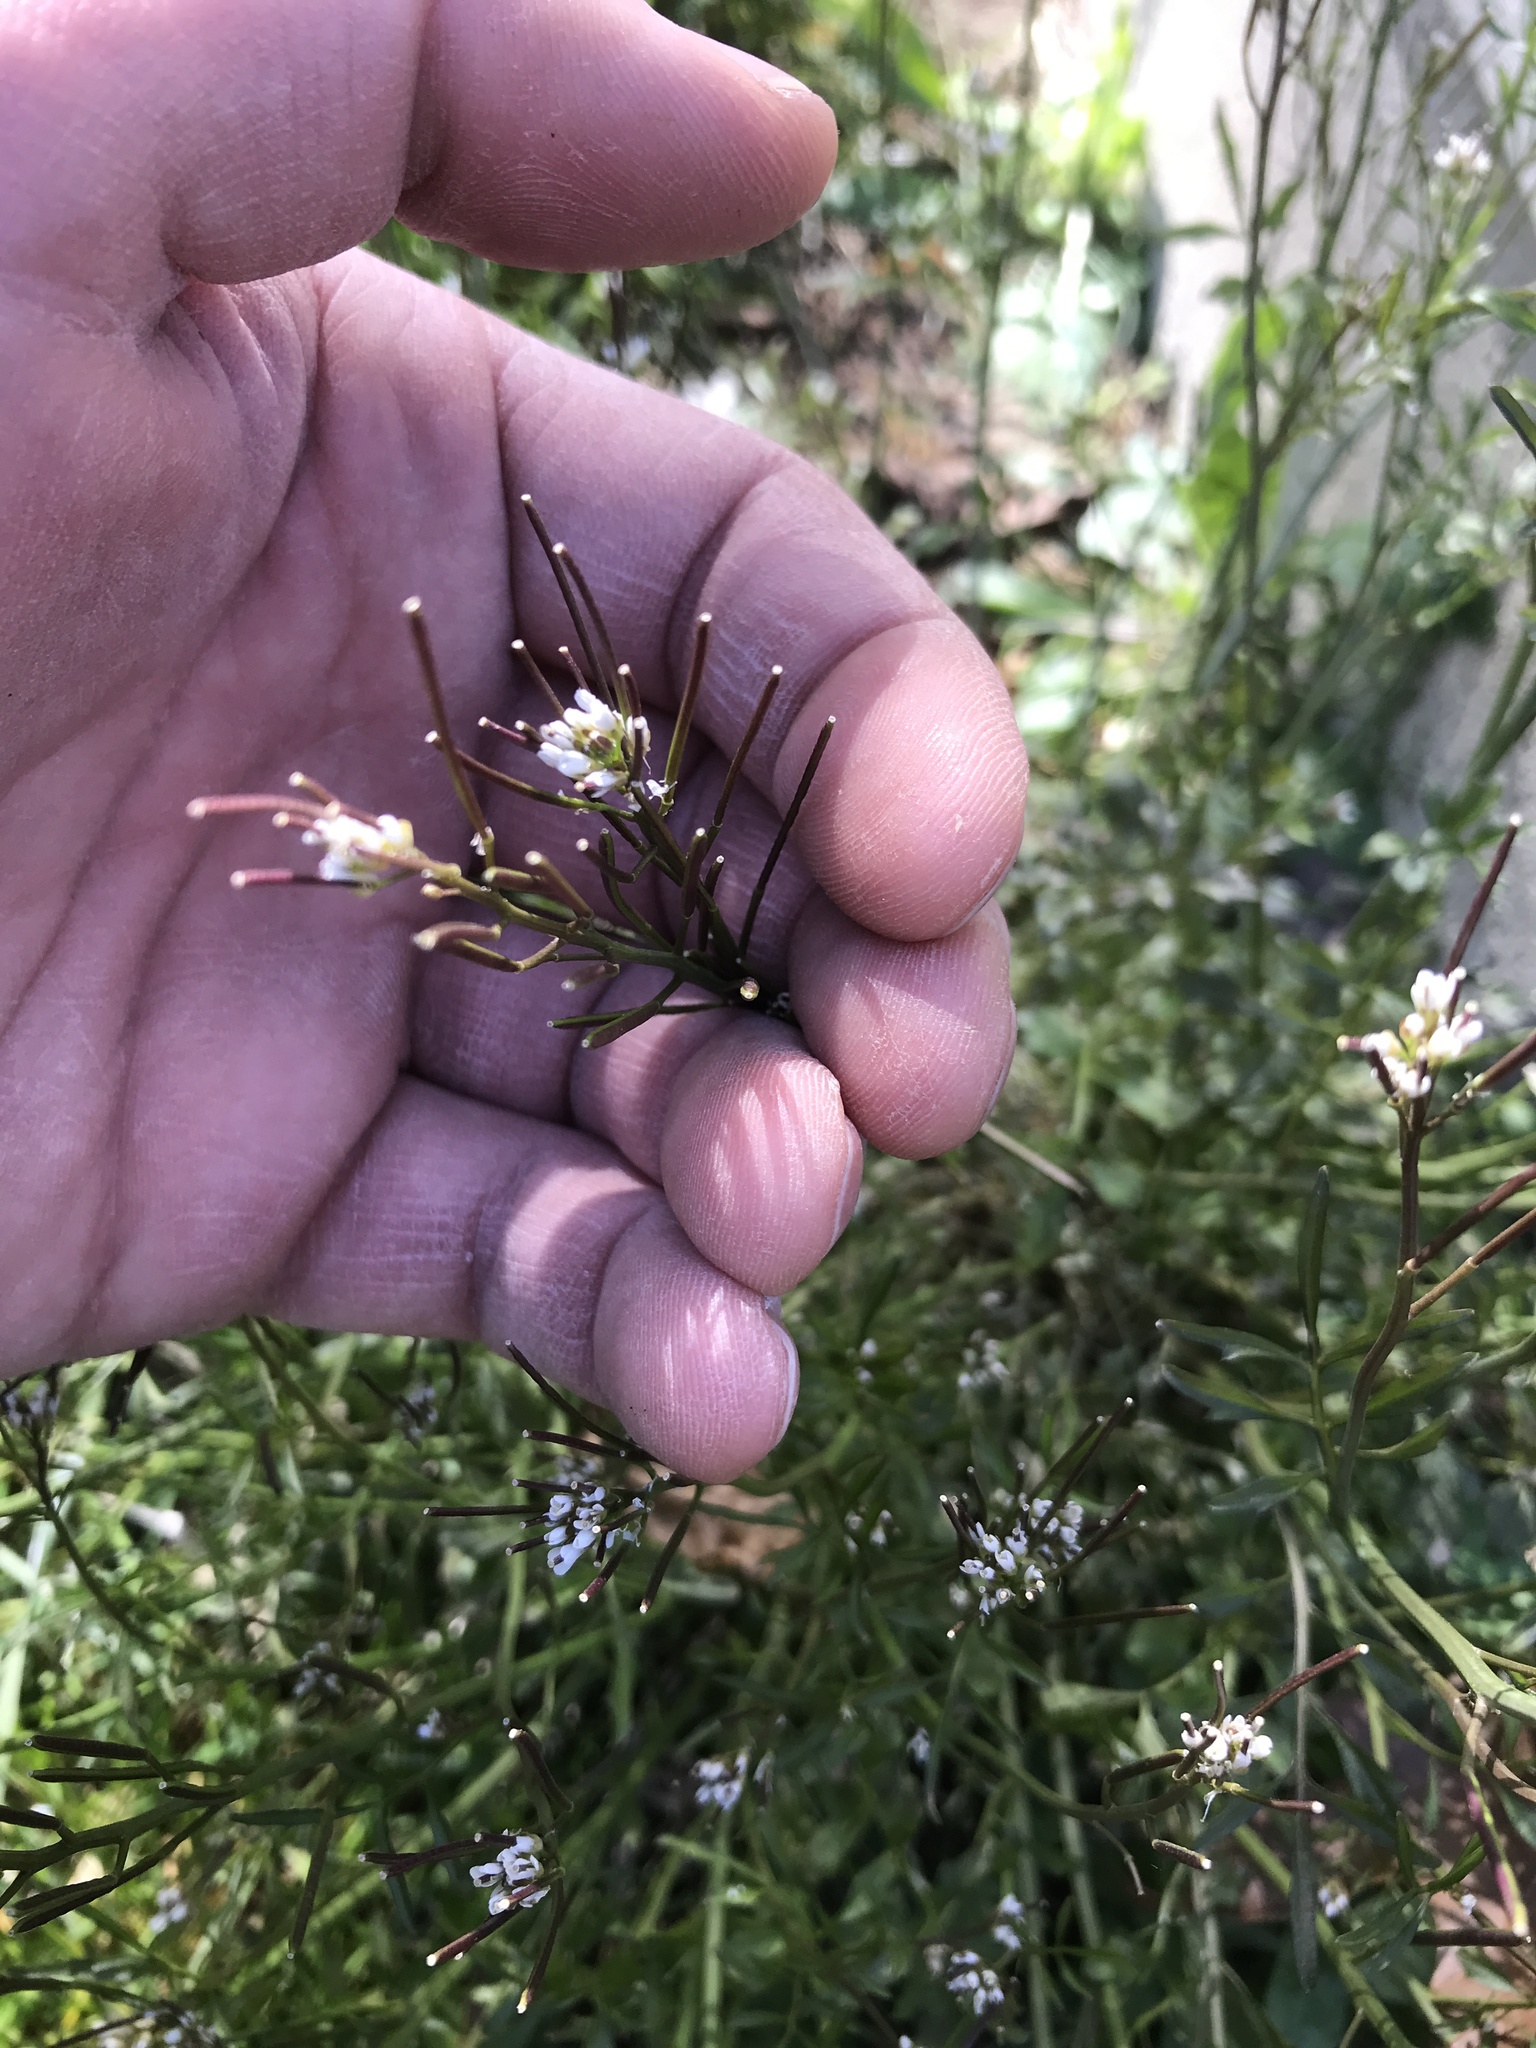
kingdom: Plantae
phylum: Tracheophyta
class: Magnoliopsida
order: Brassicales
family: Brassicaceae
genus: Cardamine
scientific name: Cardamine hirsuta
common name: Hairy bittercress
